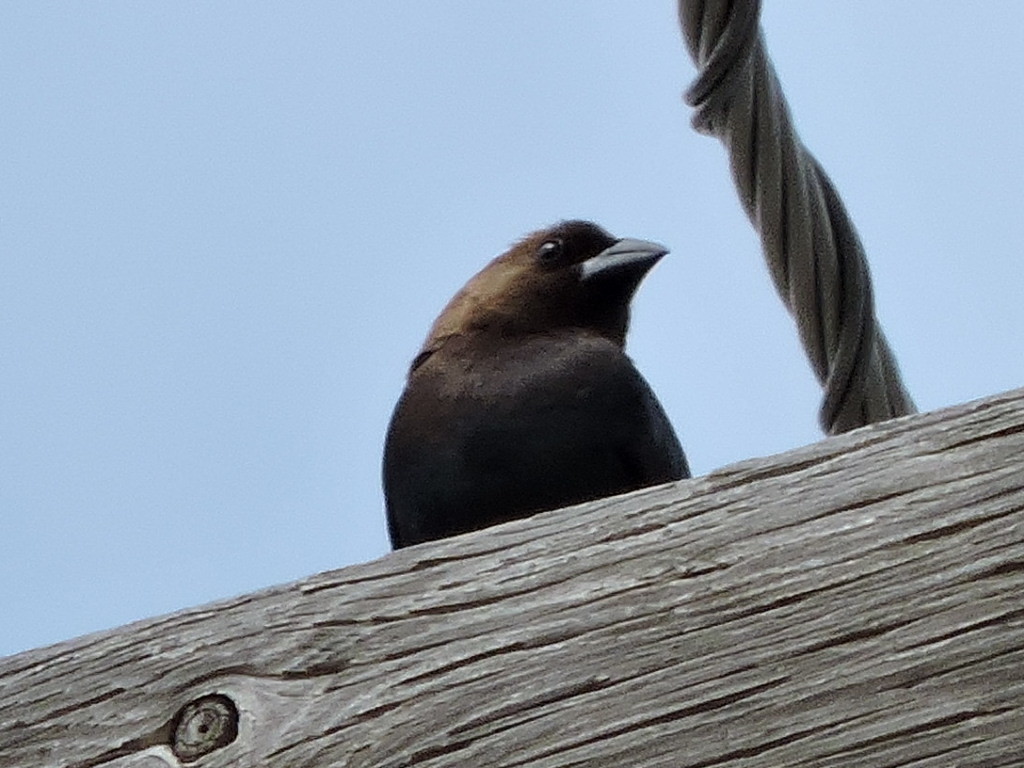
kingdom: Animalia
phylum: Chordata
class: Aves
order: Passeriformes
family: Icteridae
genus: Molothrus
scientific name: Molothrus ater
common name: Brown-headed cowbird
